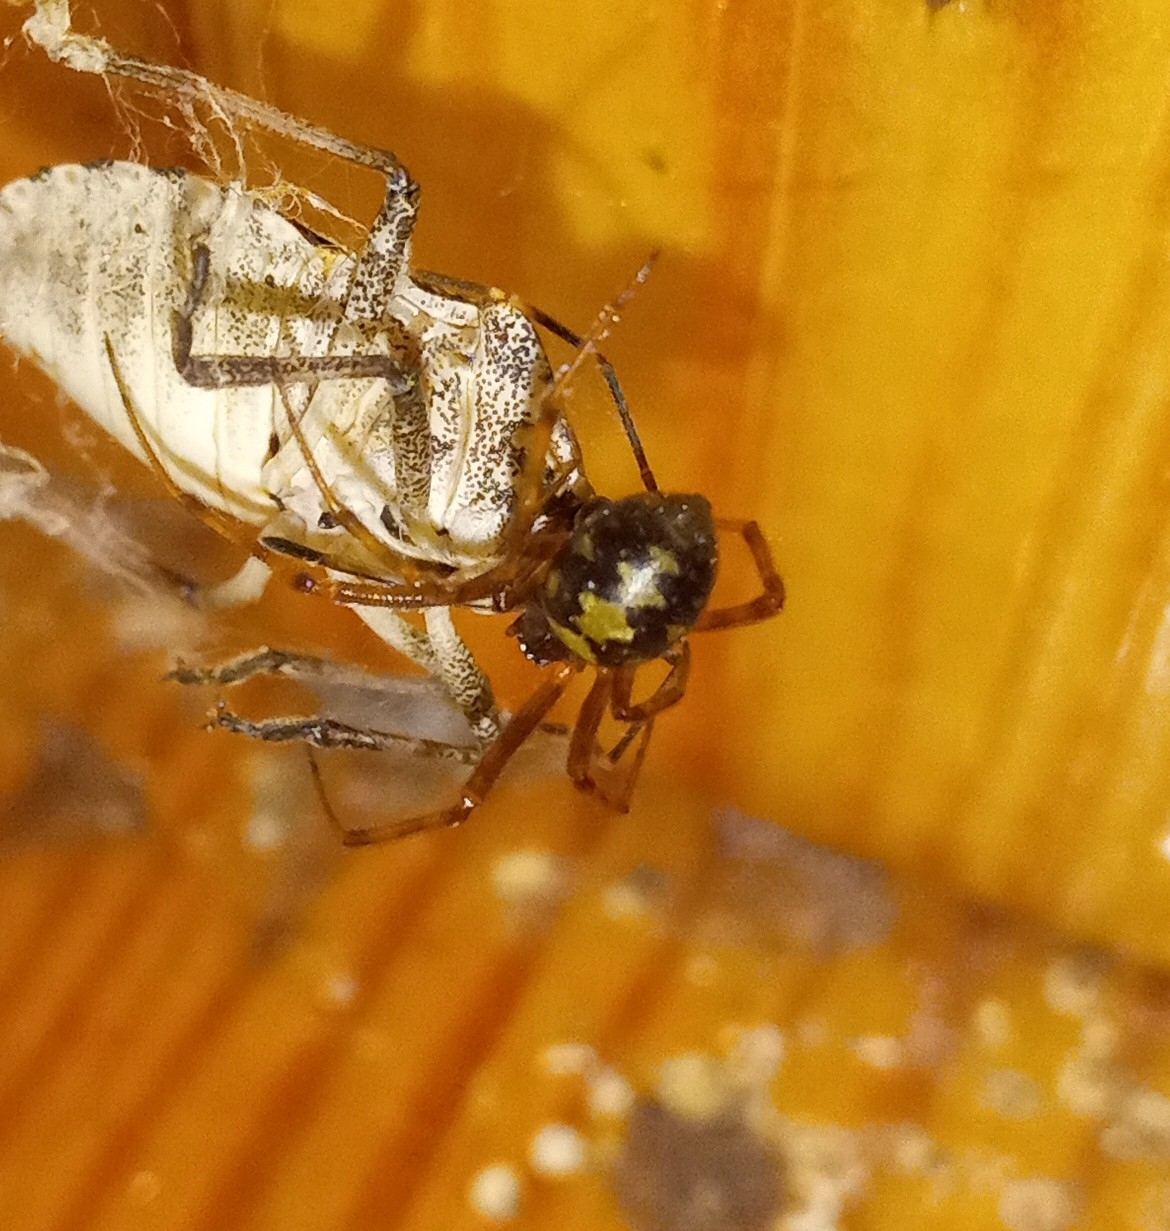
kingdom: Animalia
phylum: Arthropoda
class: Arachnida
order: Araneae
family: Theridiidae
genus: Steatoda
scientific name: Steatoda triangulosa
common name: Triangulate bud spider
